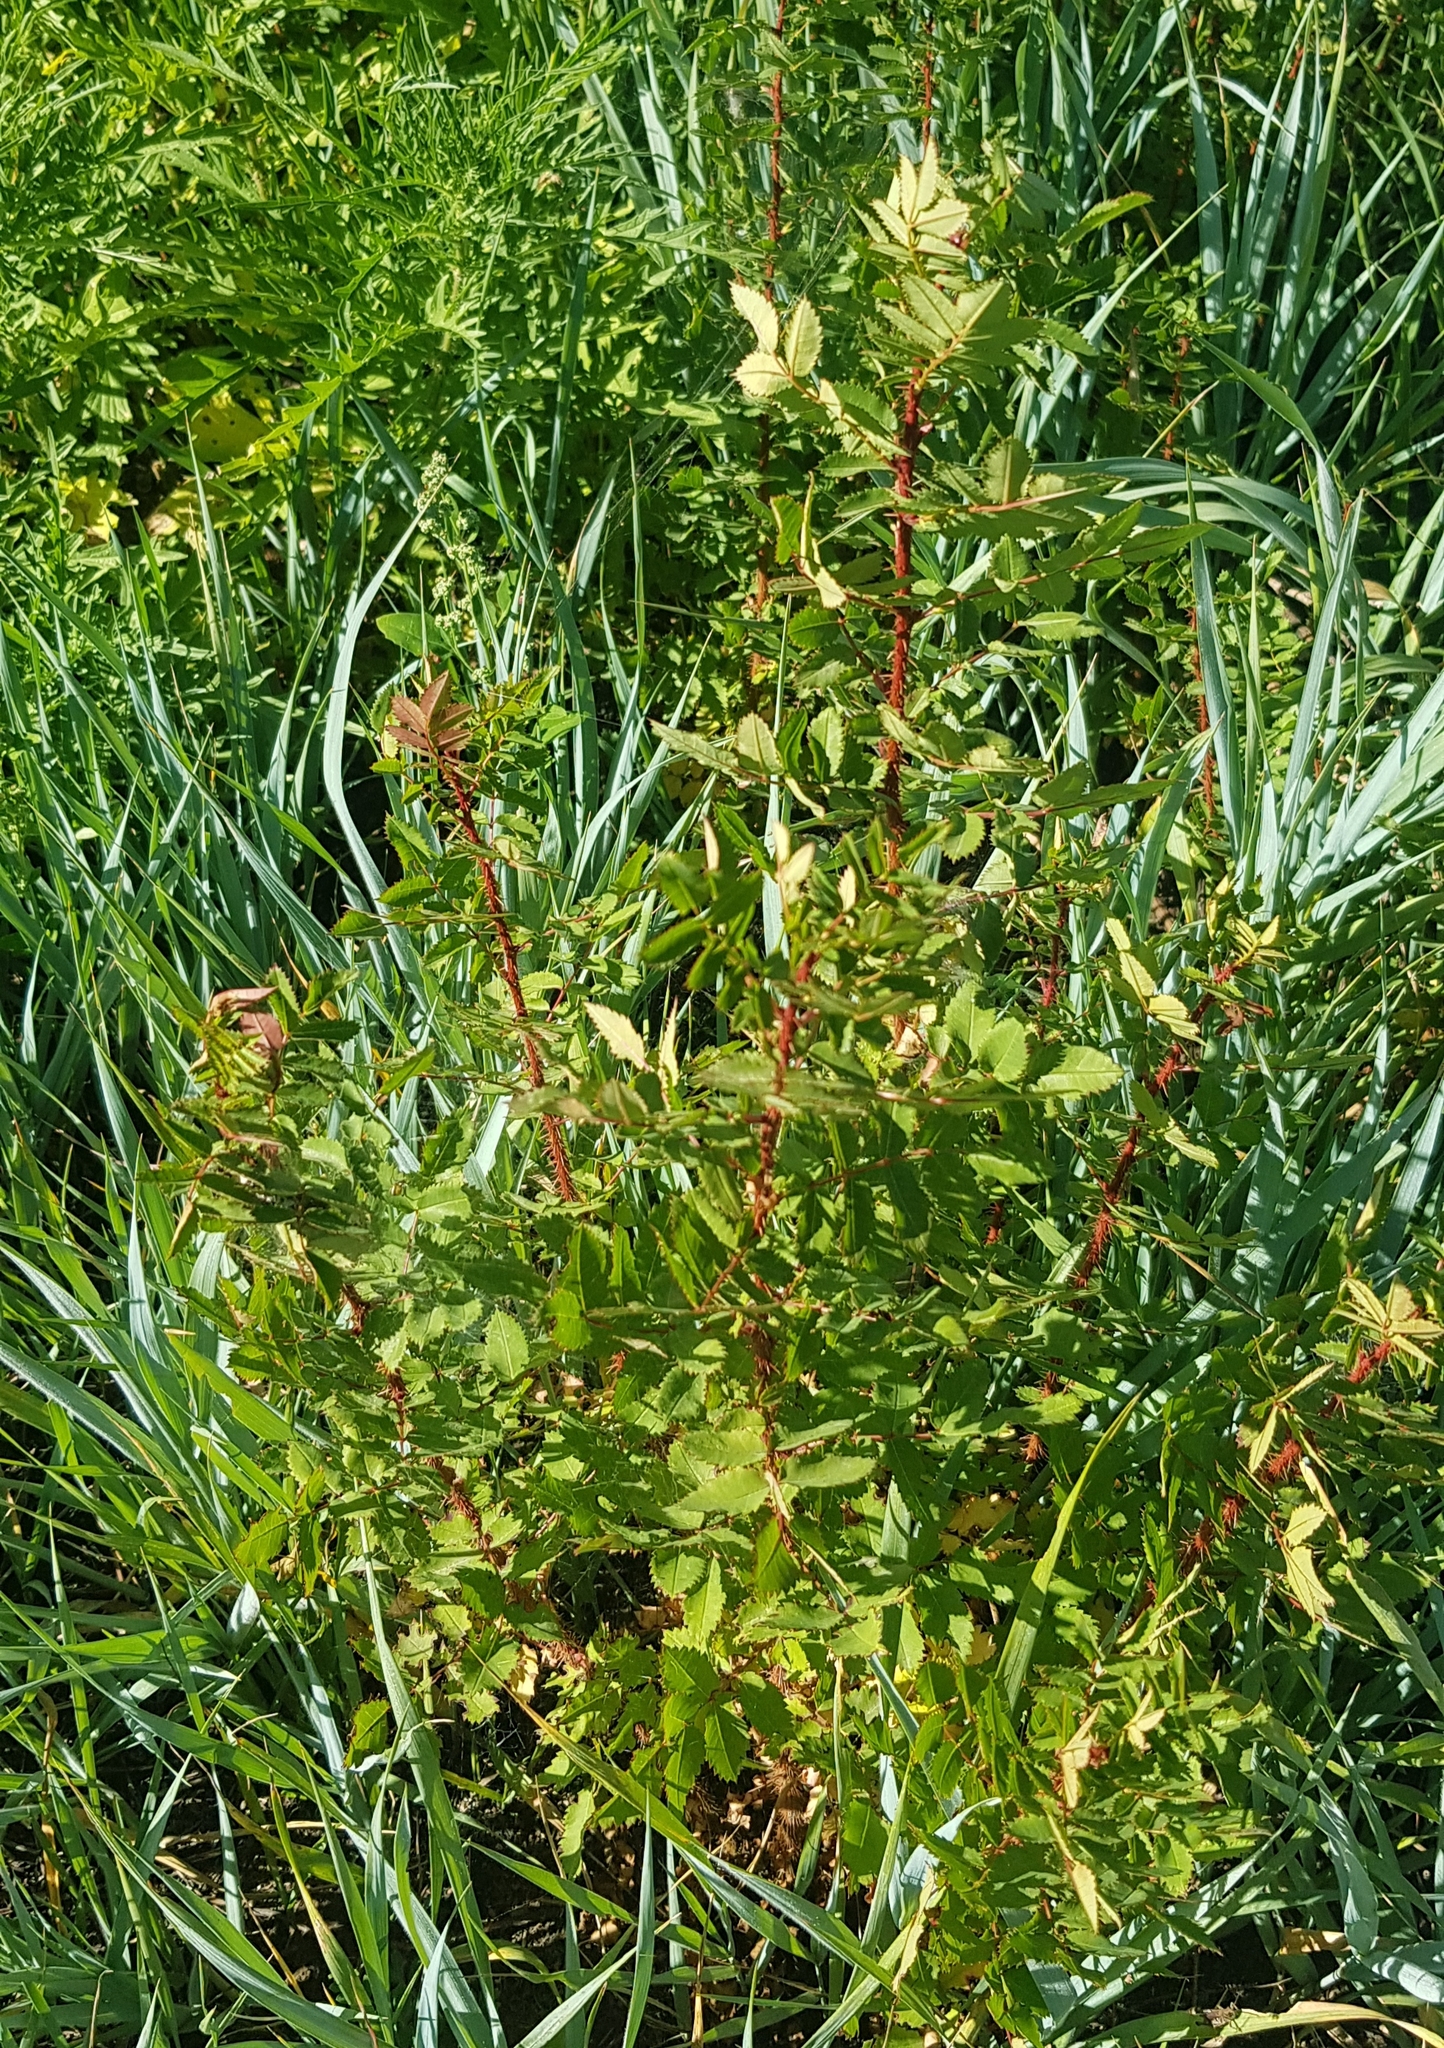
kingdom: Plantae
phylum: Tracheophyta
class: Magnoliopsida
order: Rosales
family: Rosaceae
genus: Rosa
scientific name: Rosa acicularis
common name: Prickly rose
